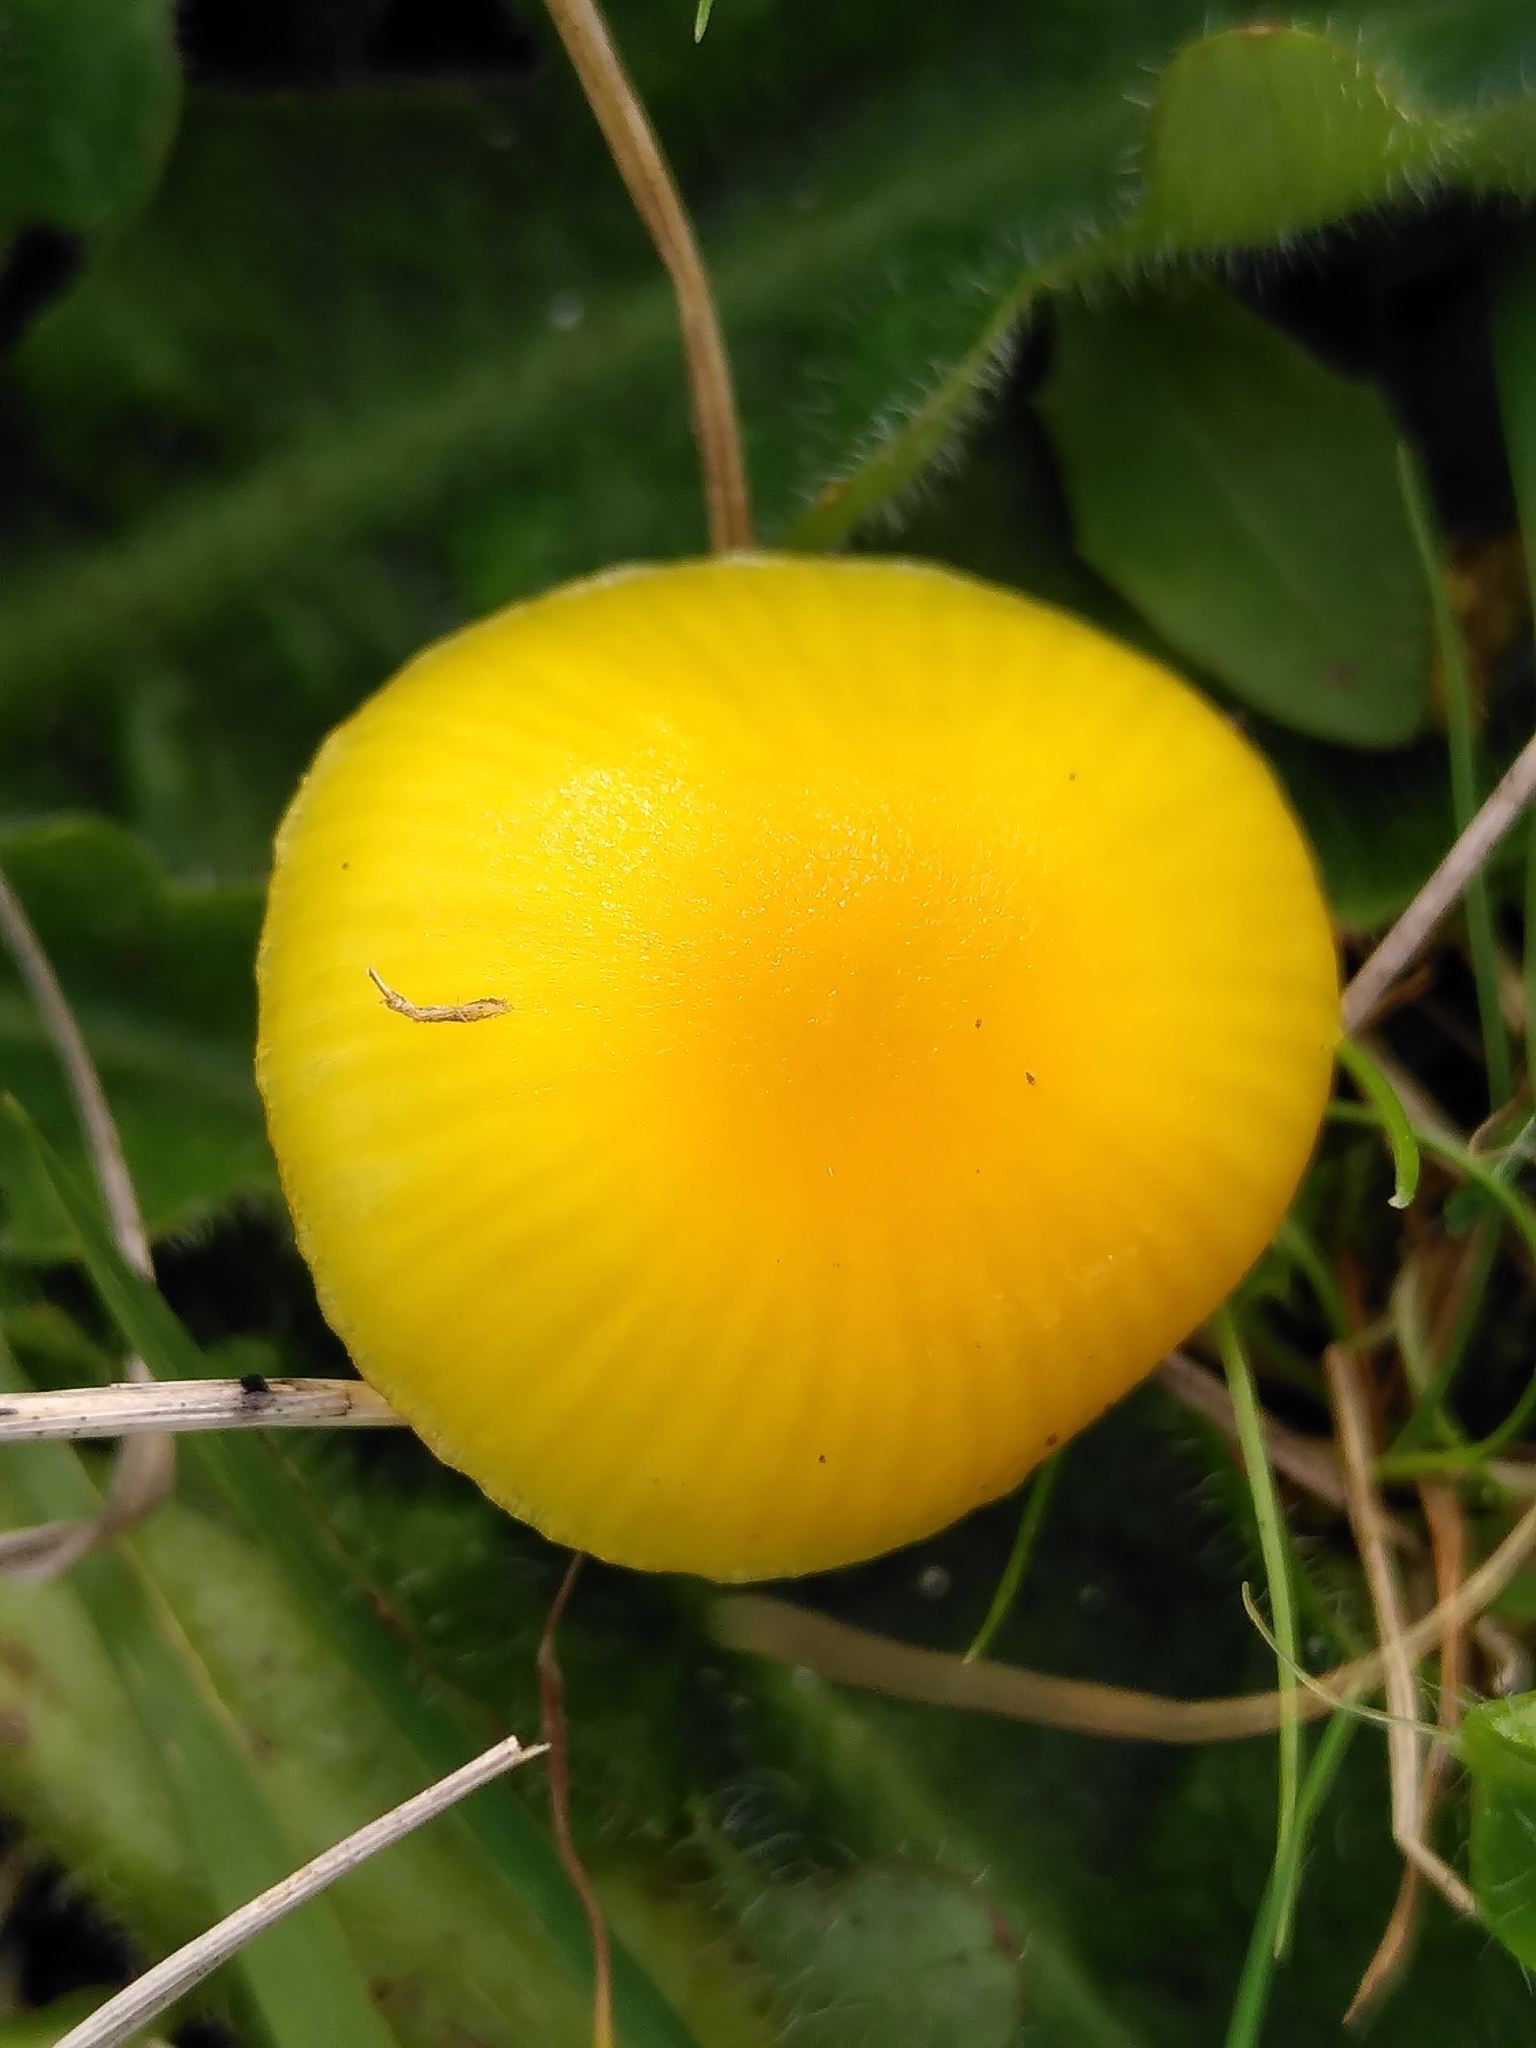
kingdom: Fungi
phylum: Basidiomycota
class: Agaricomycetes
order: Agaricales
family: Hygrophoraceae
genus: Hygrocybe
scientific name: Hygrocybe ceracea
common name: Butter waxcap
